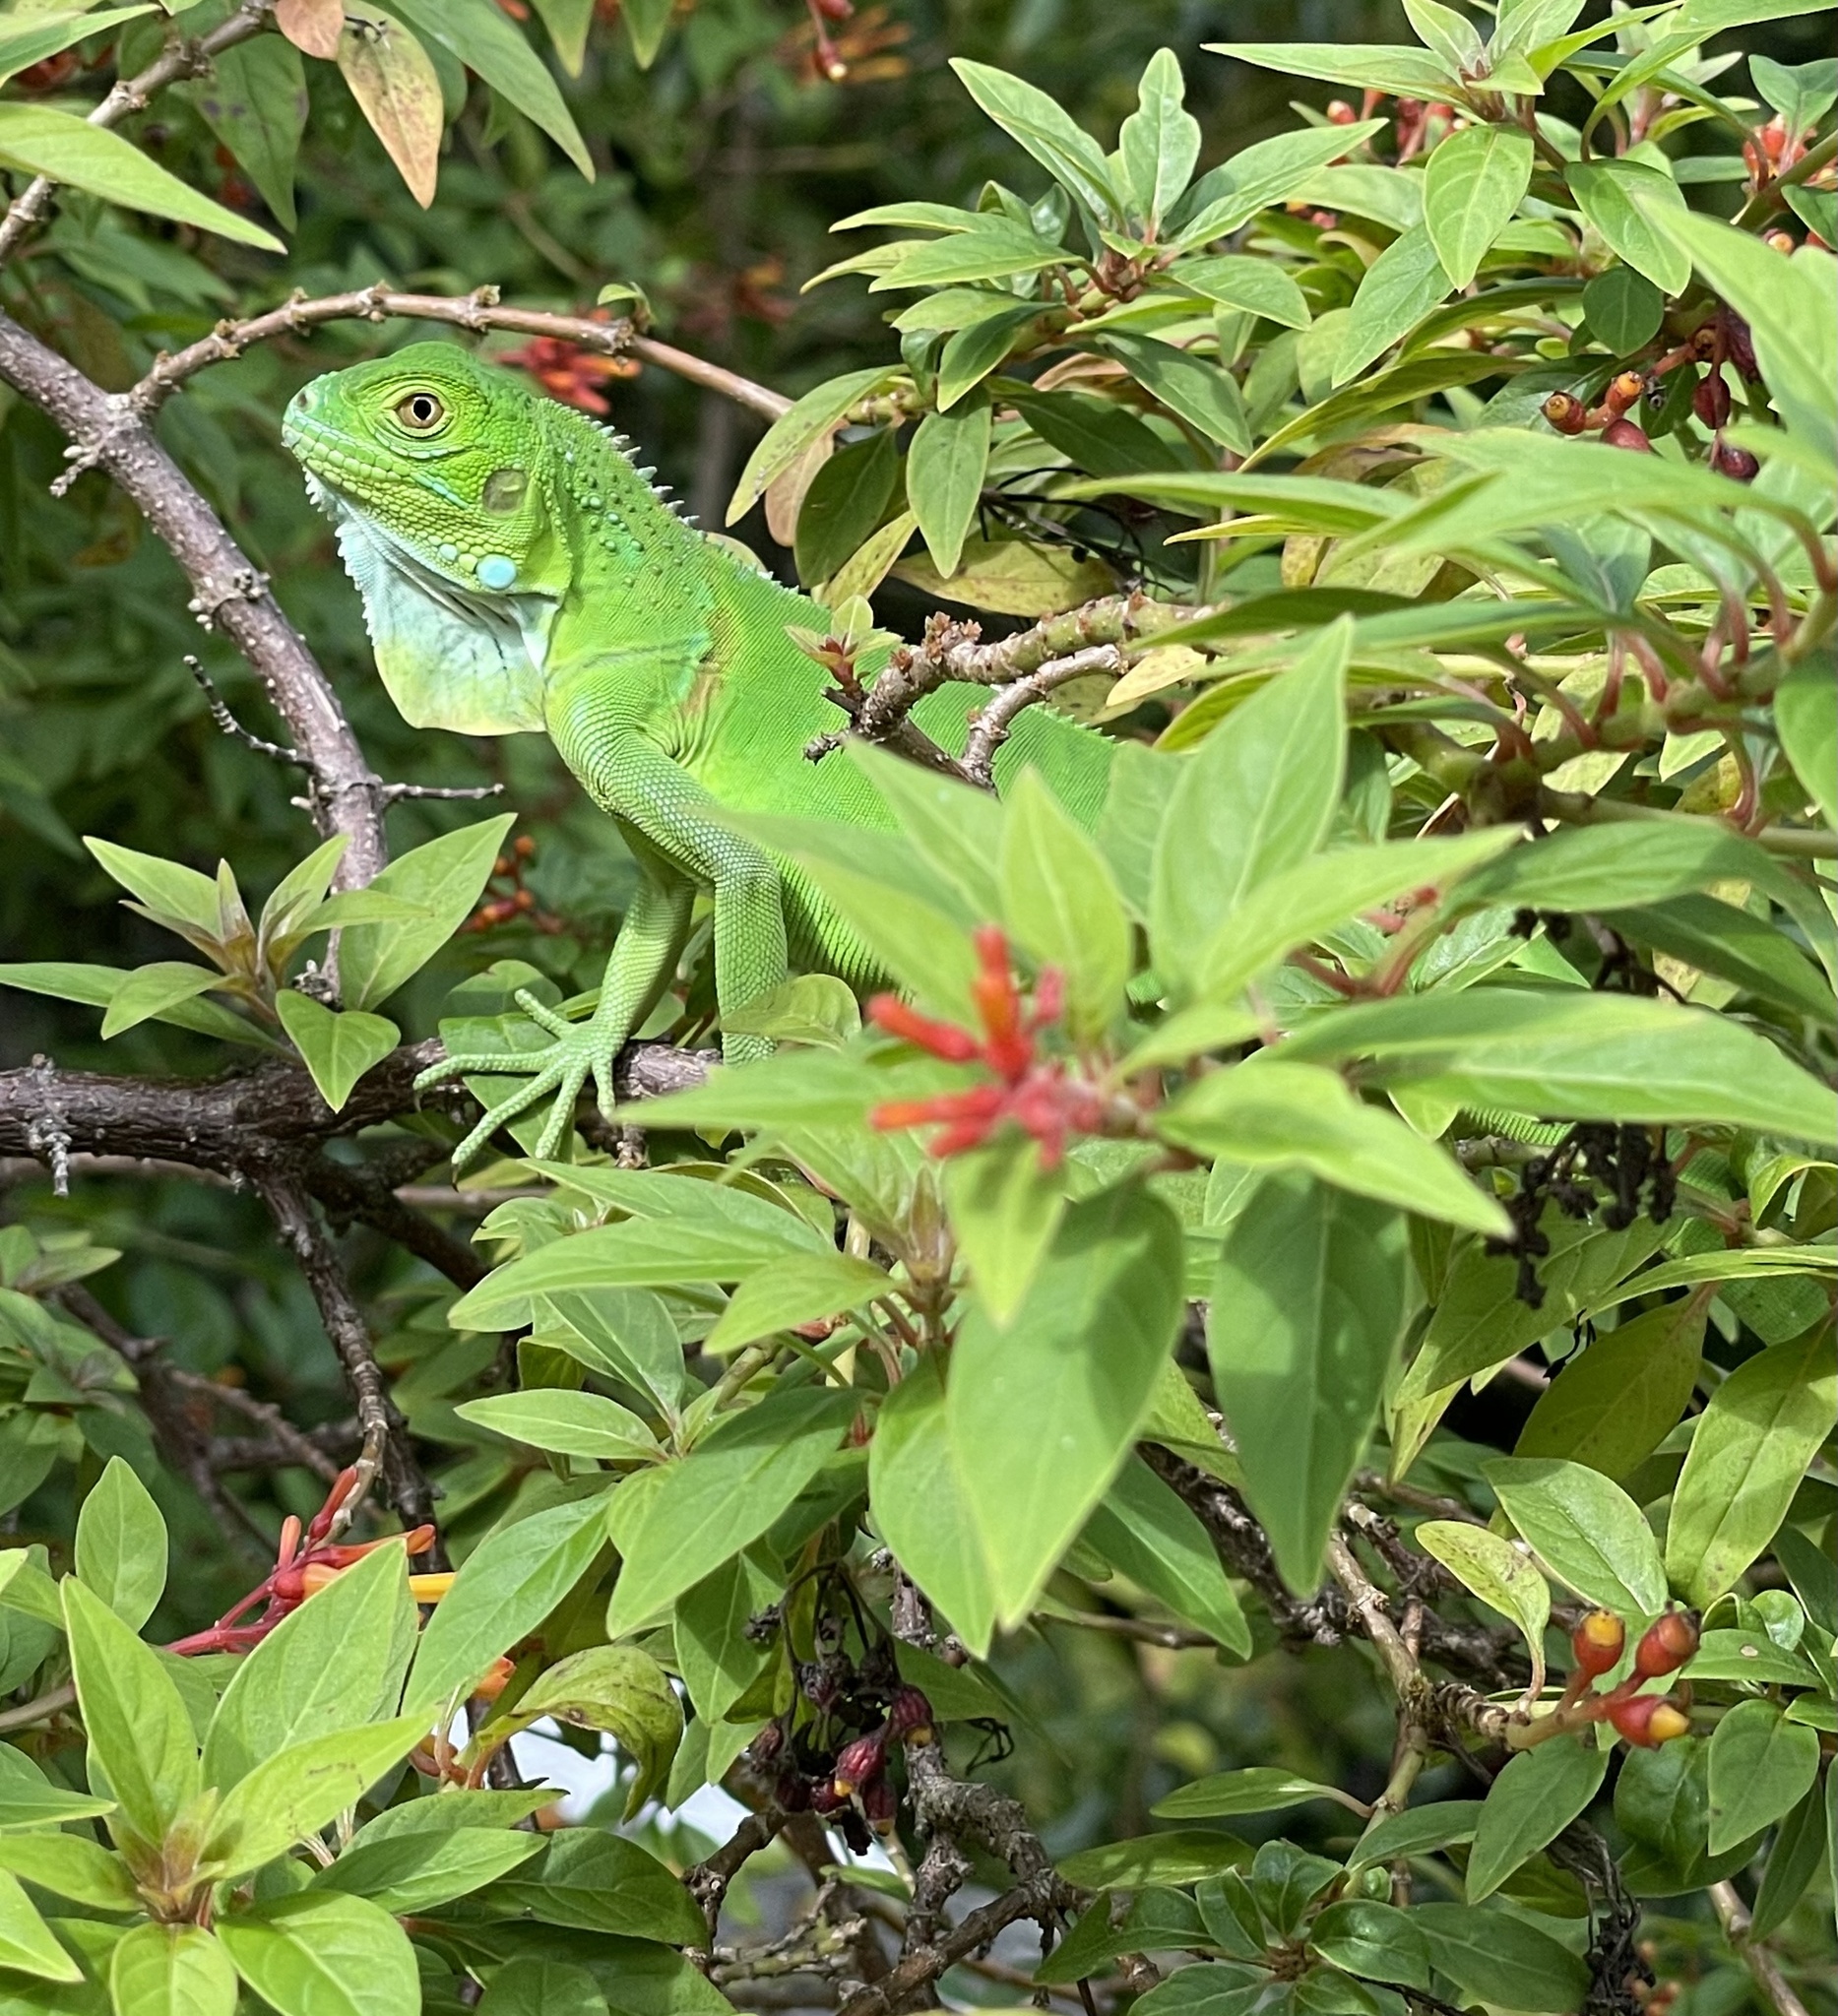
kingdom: Animalia
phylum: Chordata
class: Squamata
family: Iguanidae
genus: Iguana
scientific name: Iguana iguana
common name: Green iguana
